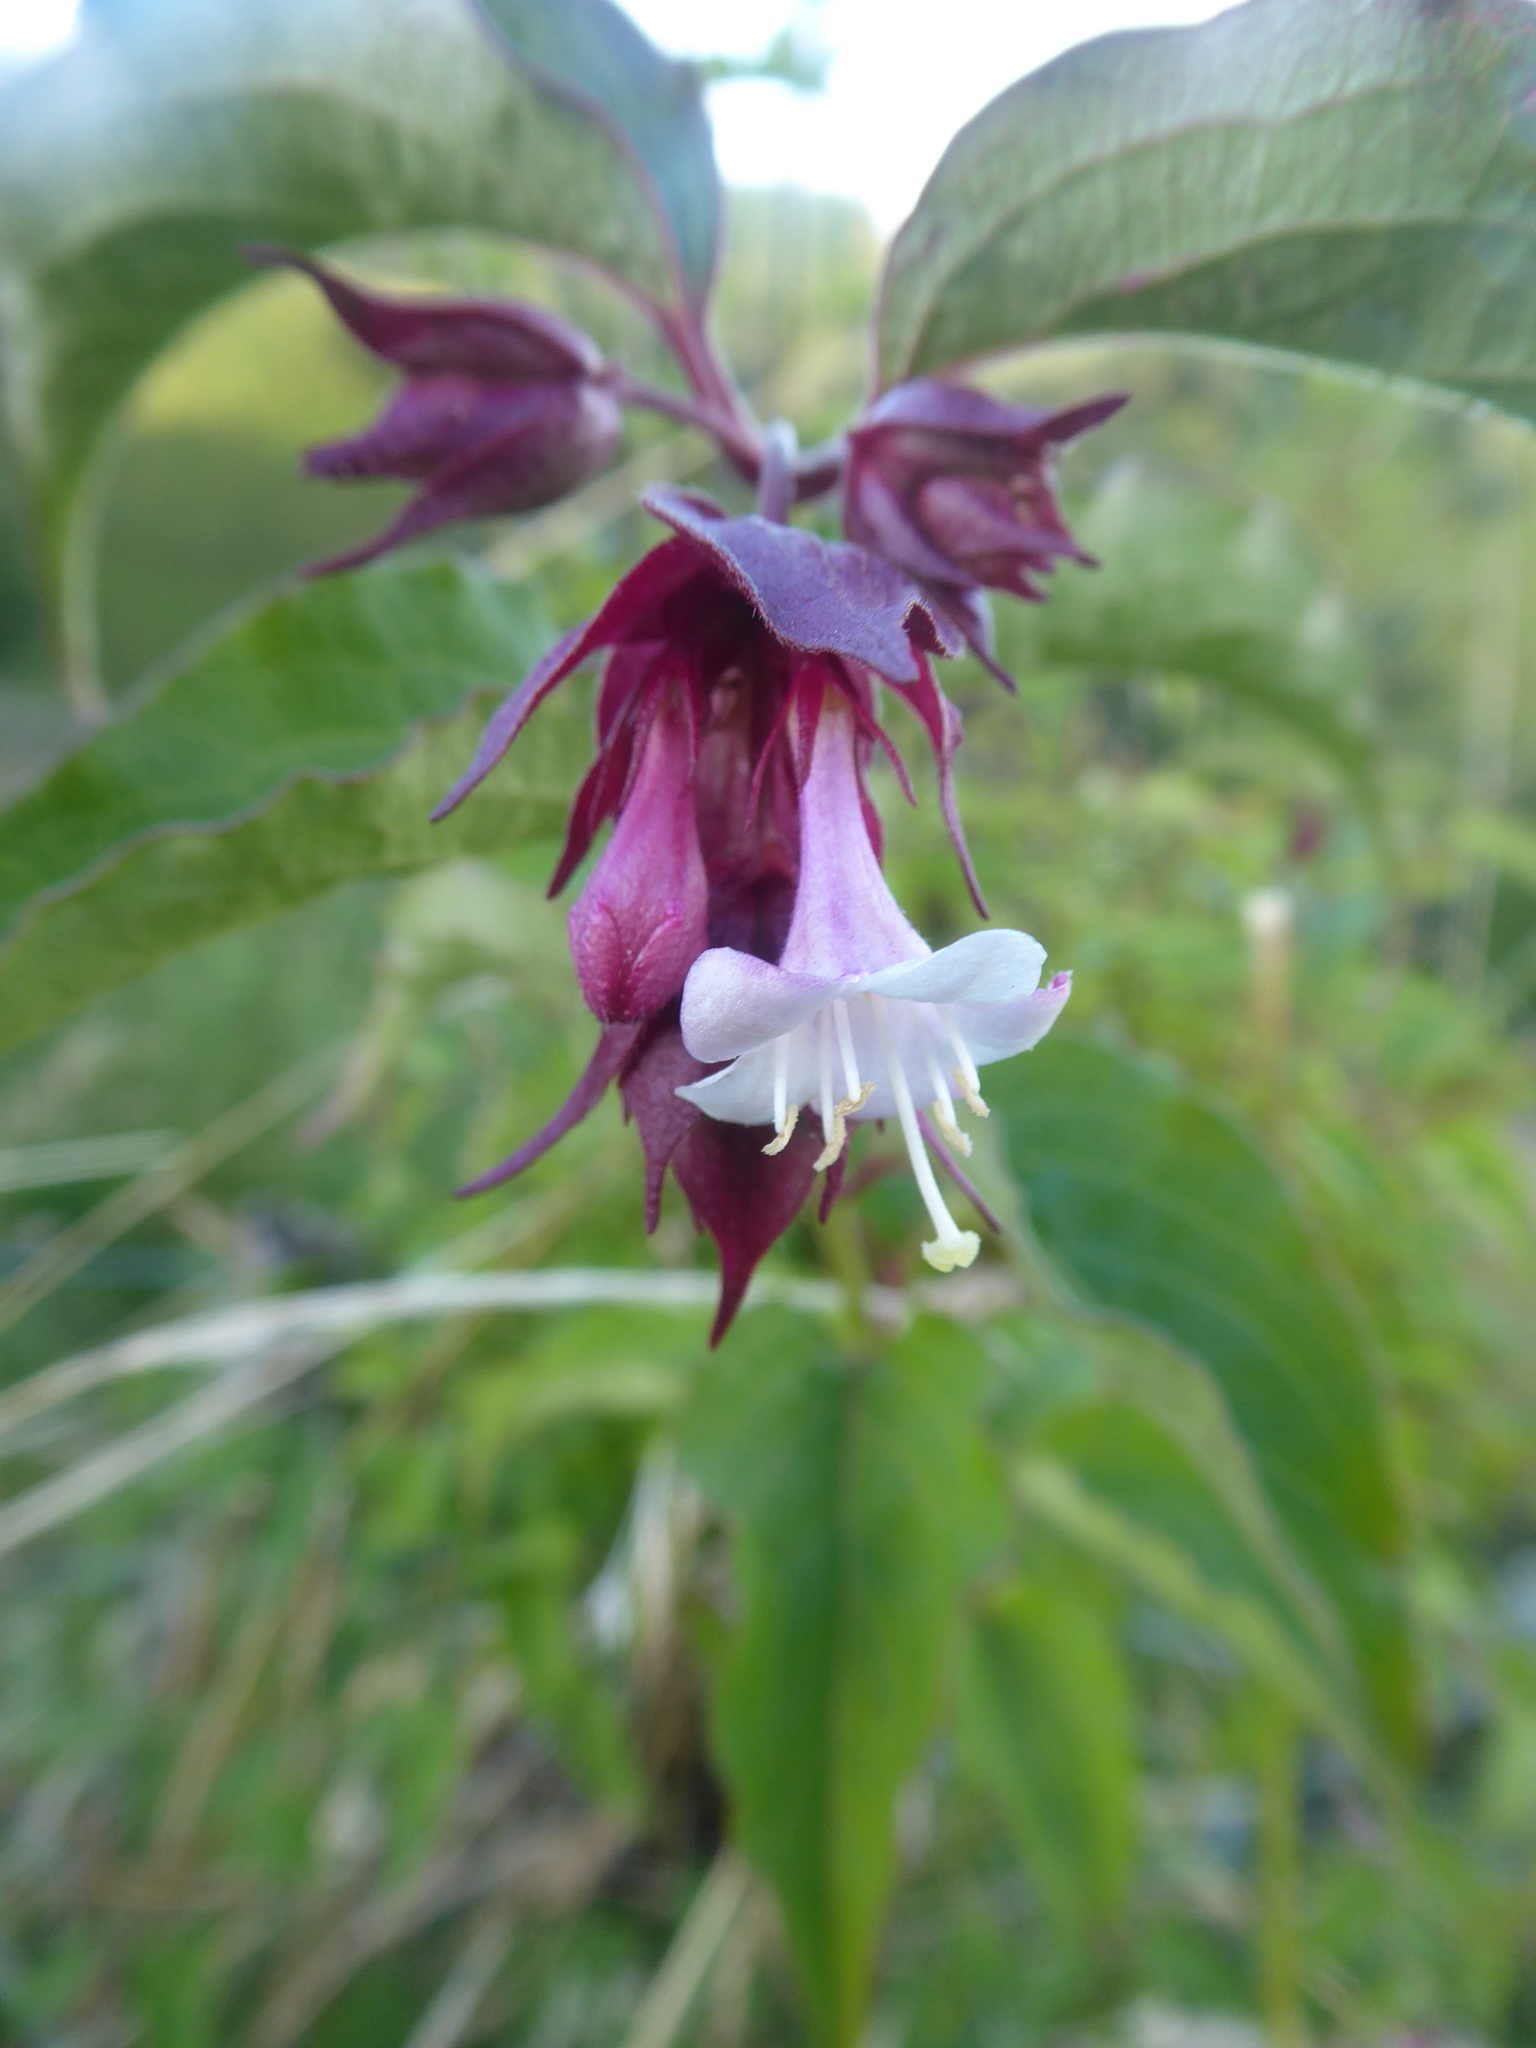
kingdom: Plantae
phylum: Tracheophyta
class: Magnoliopsida
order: Dipsacales
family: Caprifoliaceae
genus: Leycesteria
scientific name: Leycesteria formosa
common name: Himalayan honeysuckle
